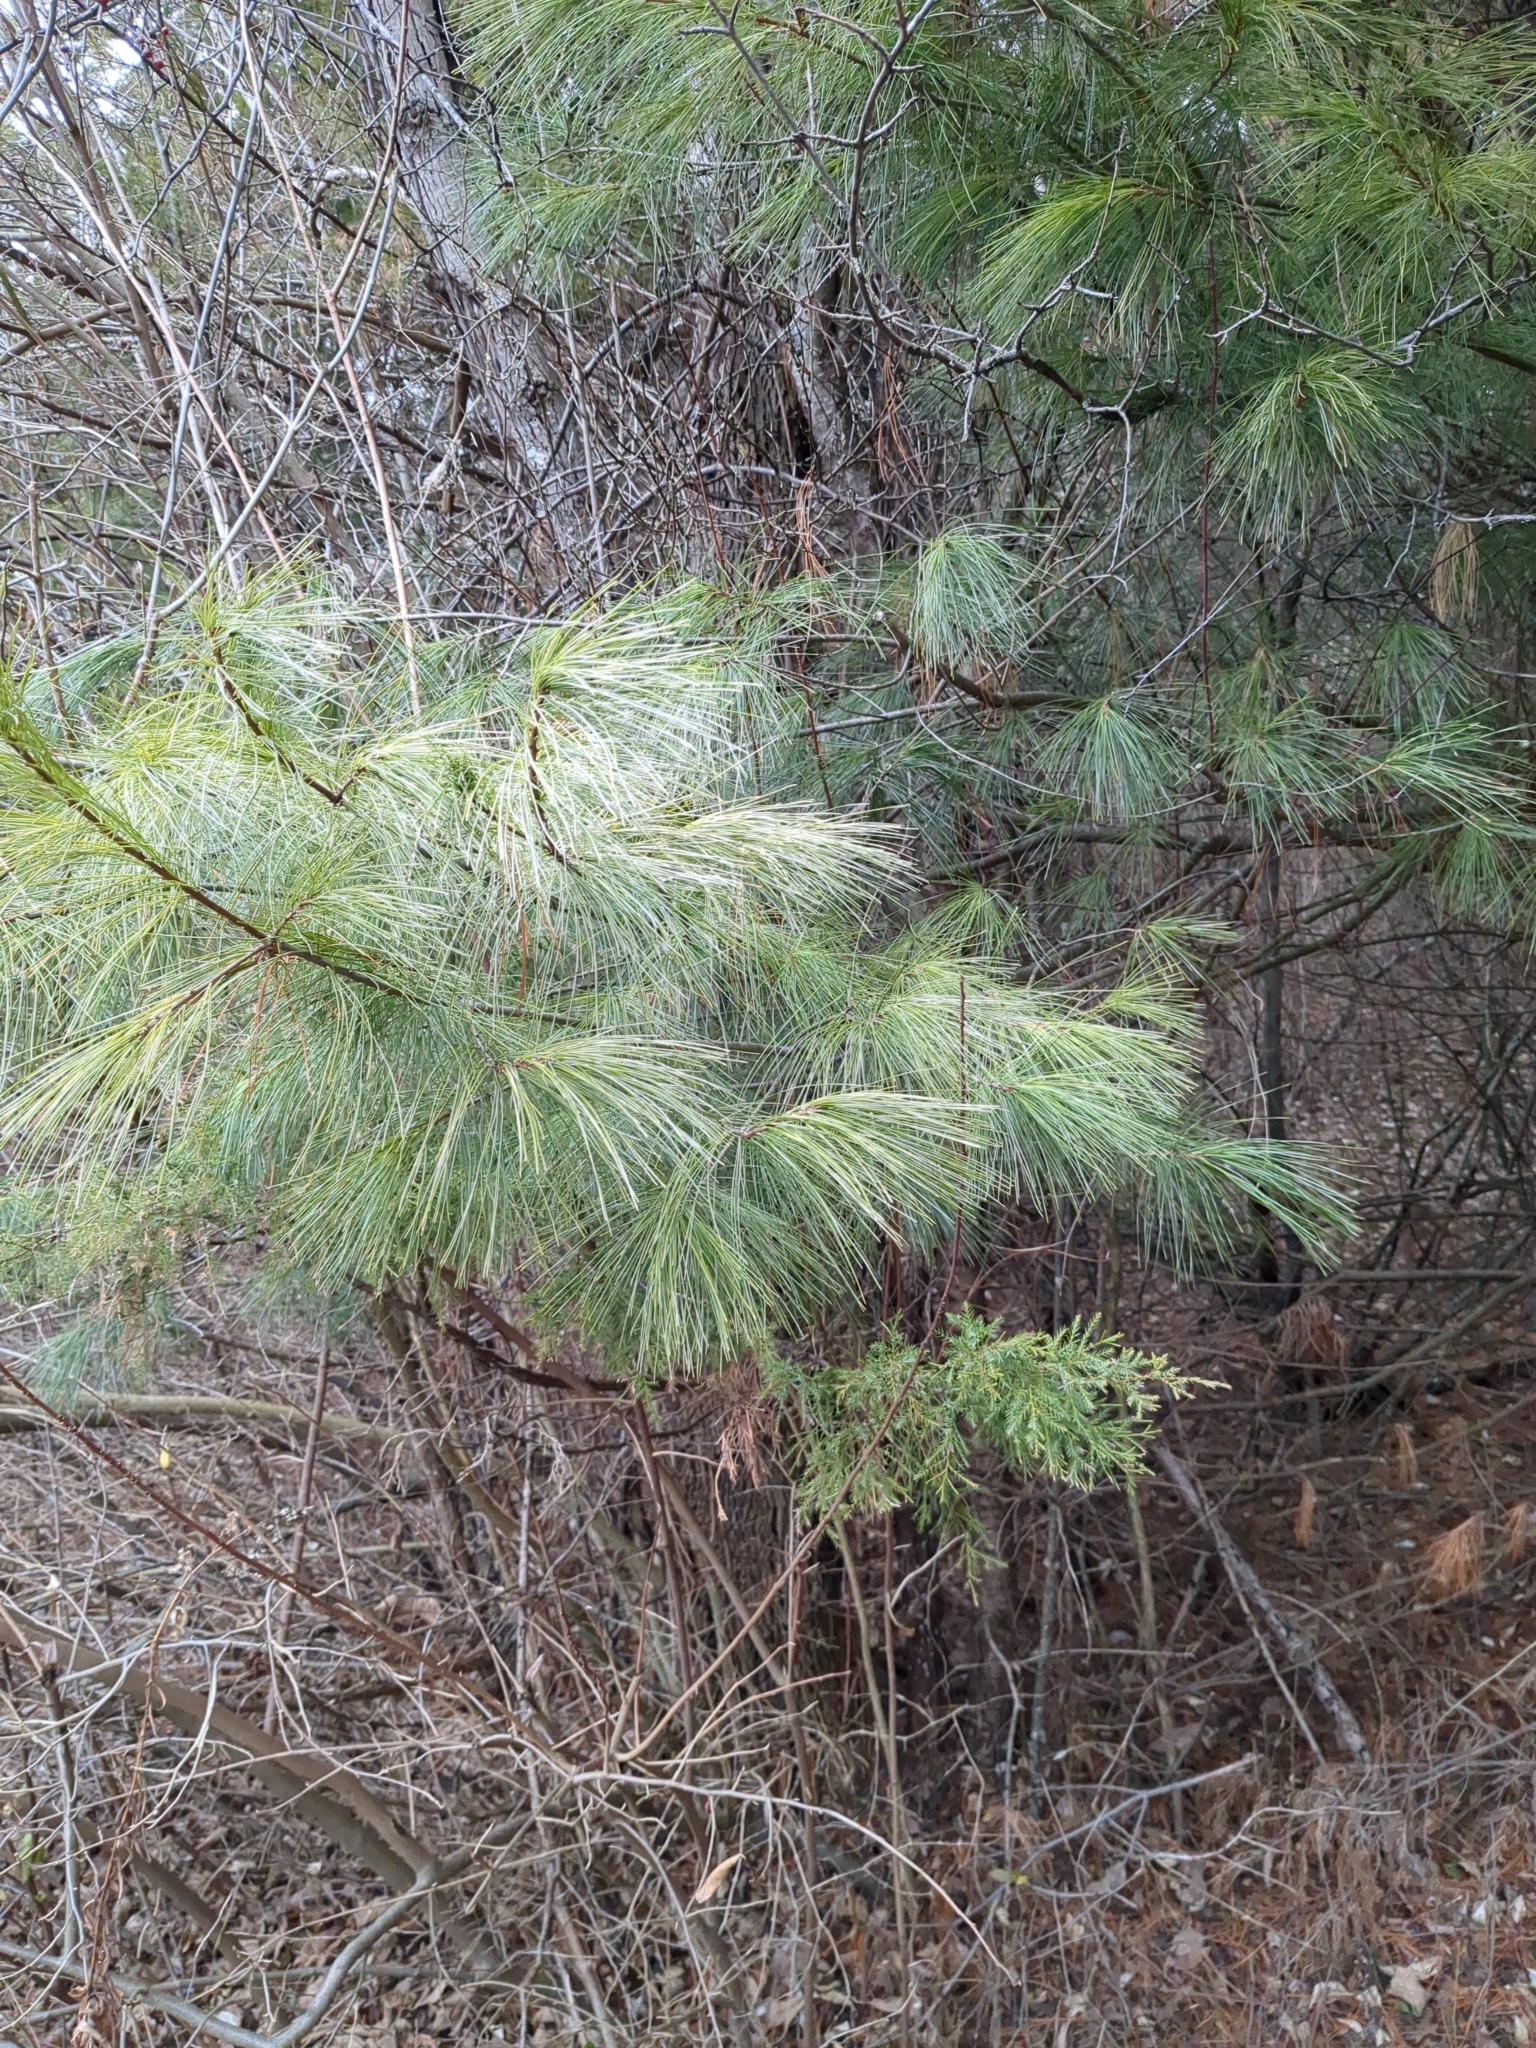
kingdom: Plantae
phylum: Tracheophyta
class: Pinopsida
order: Pinales
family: Pinaceae
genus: Pinus
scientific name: Pinus strobus
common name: Weymouth pine
